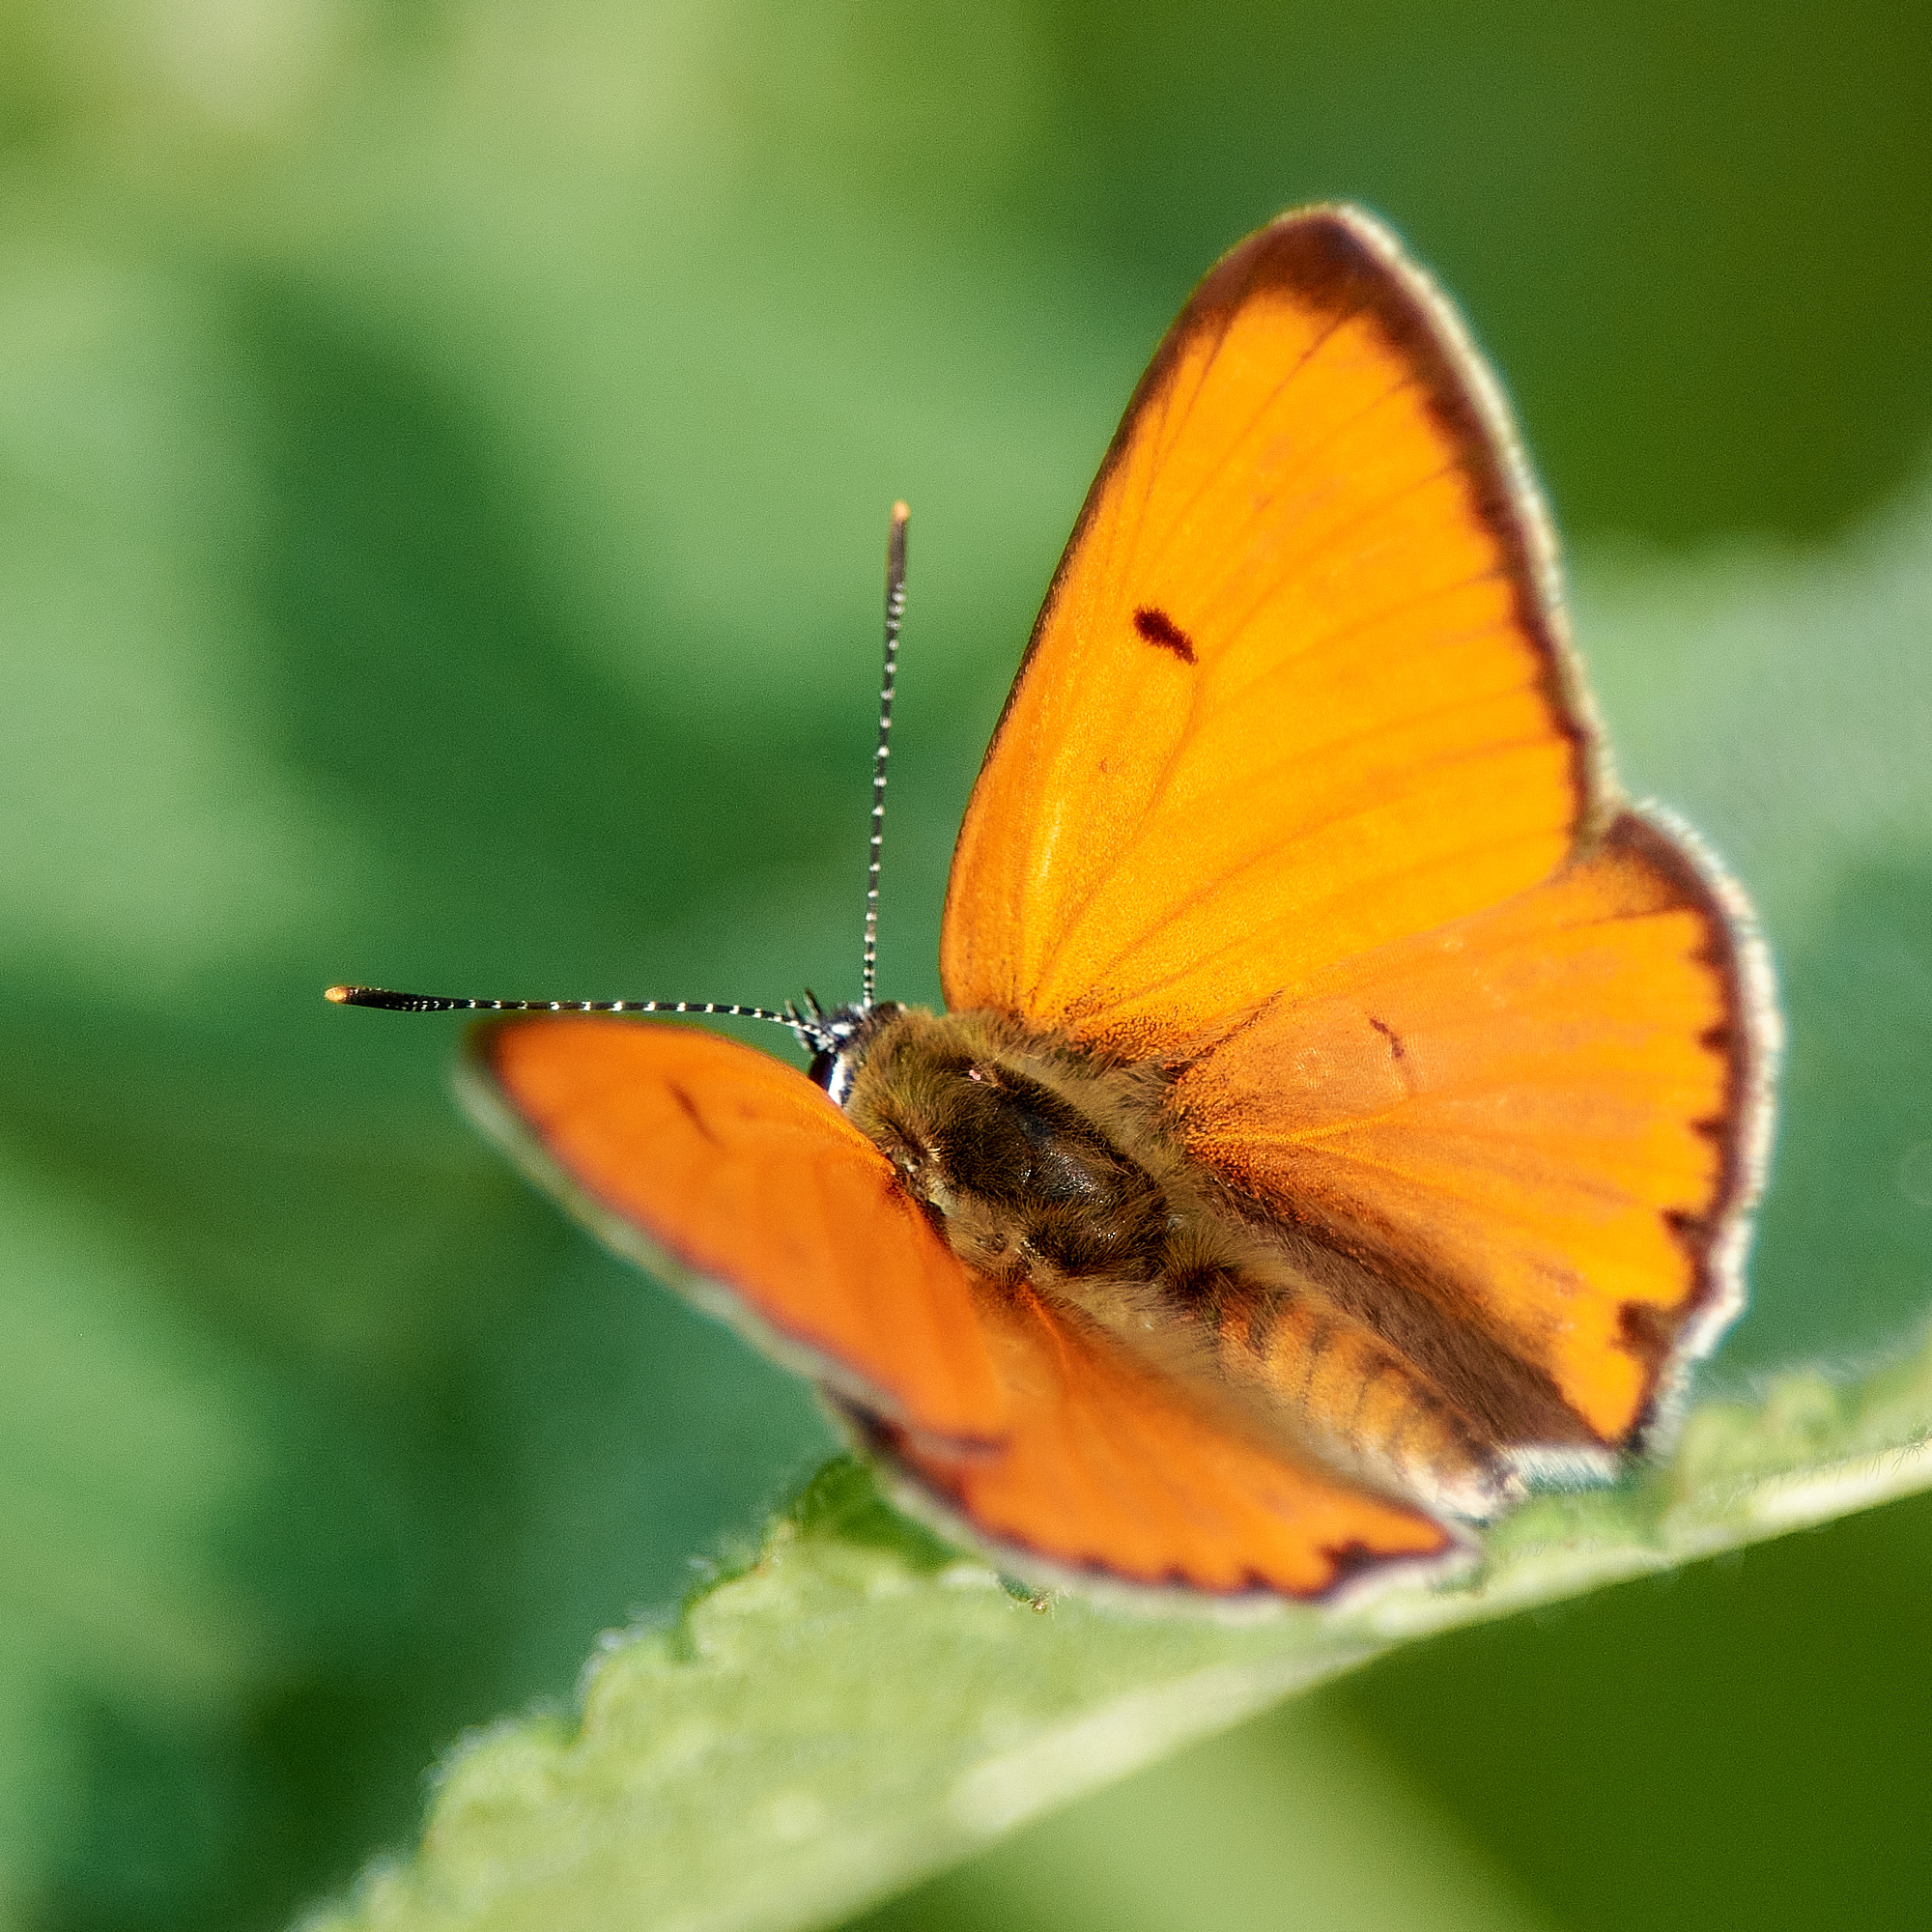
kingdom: Animalia
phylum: Arthropoda
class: Insecta
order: Lepidoptera
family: Lycaenidae
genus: Lycaena
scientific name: Lycaena dispar
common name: Large copper
